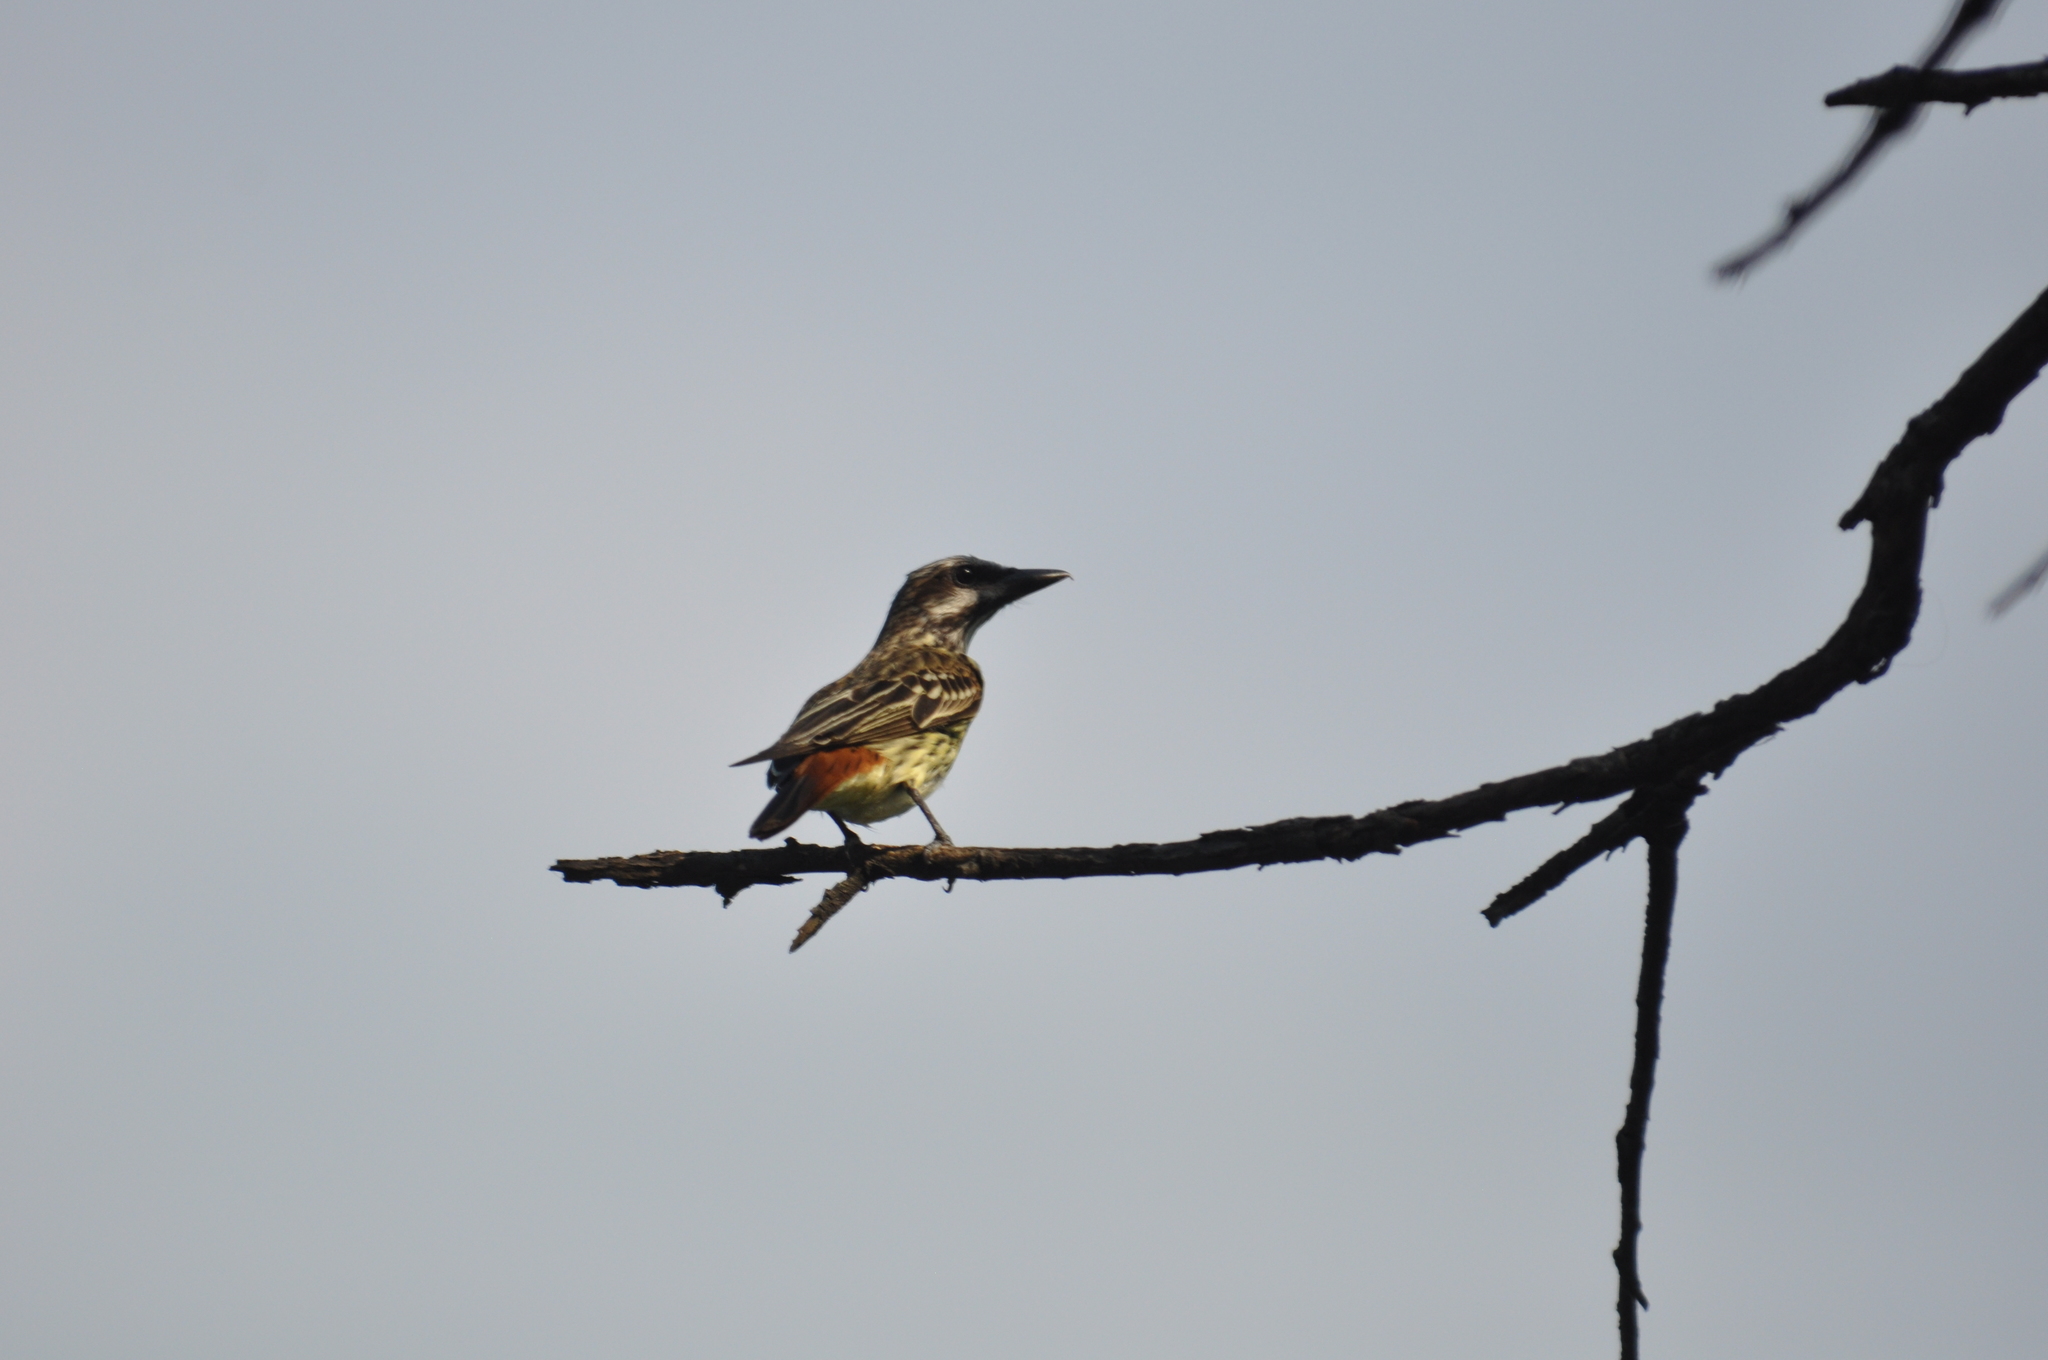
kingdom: Animalia
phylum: Chordata
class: Aves
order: Passeriformes
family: Tyrannidae
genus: Myiodynastes
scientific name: Myiodynastes luteiventris
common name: Sulphur-bellied flycatcher
